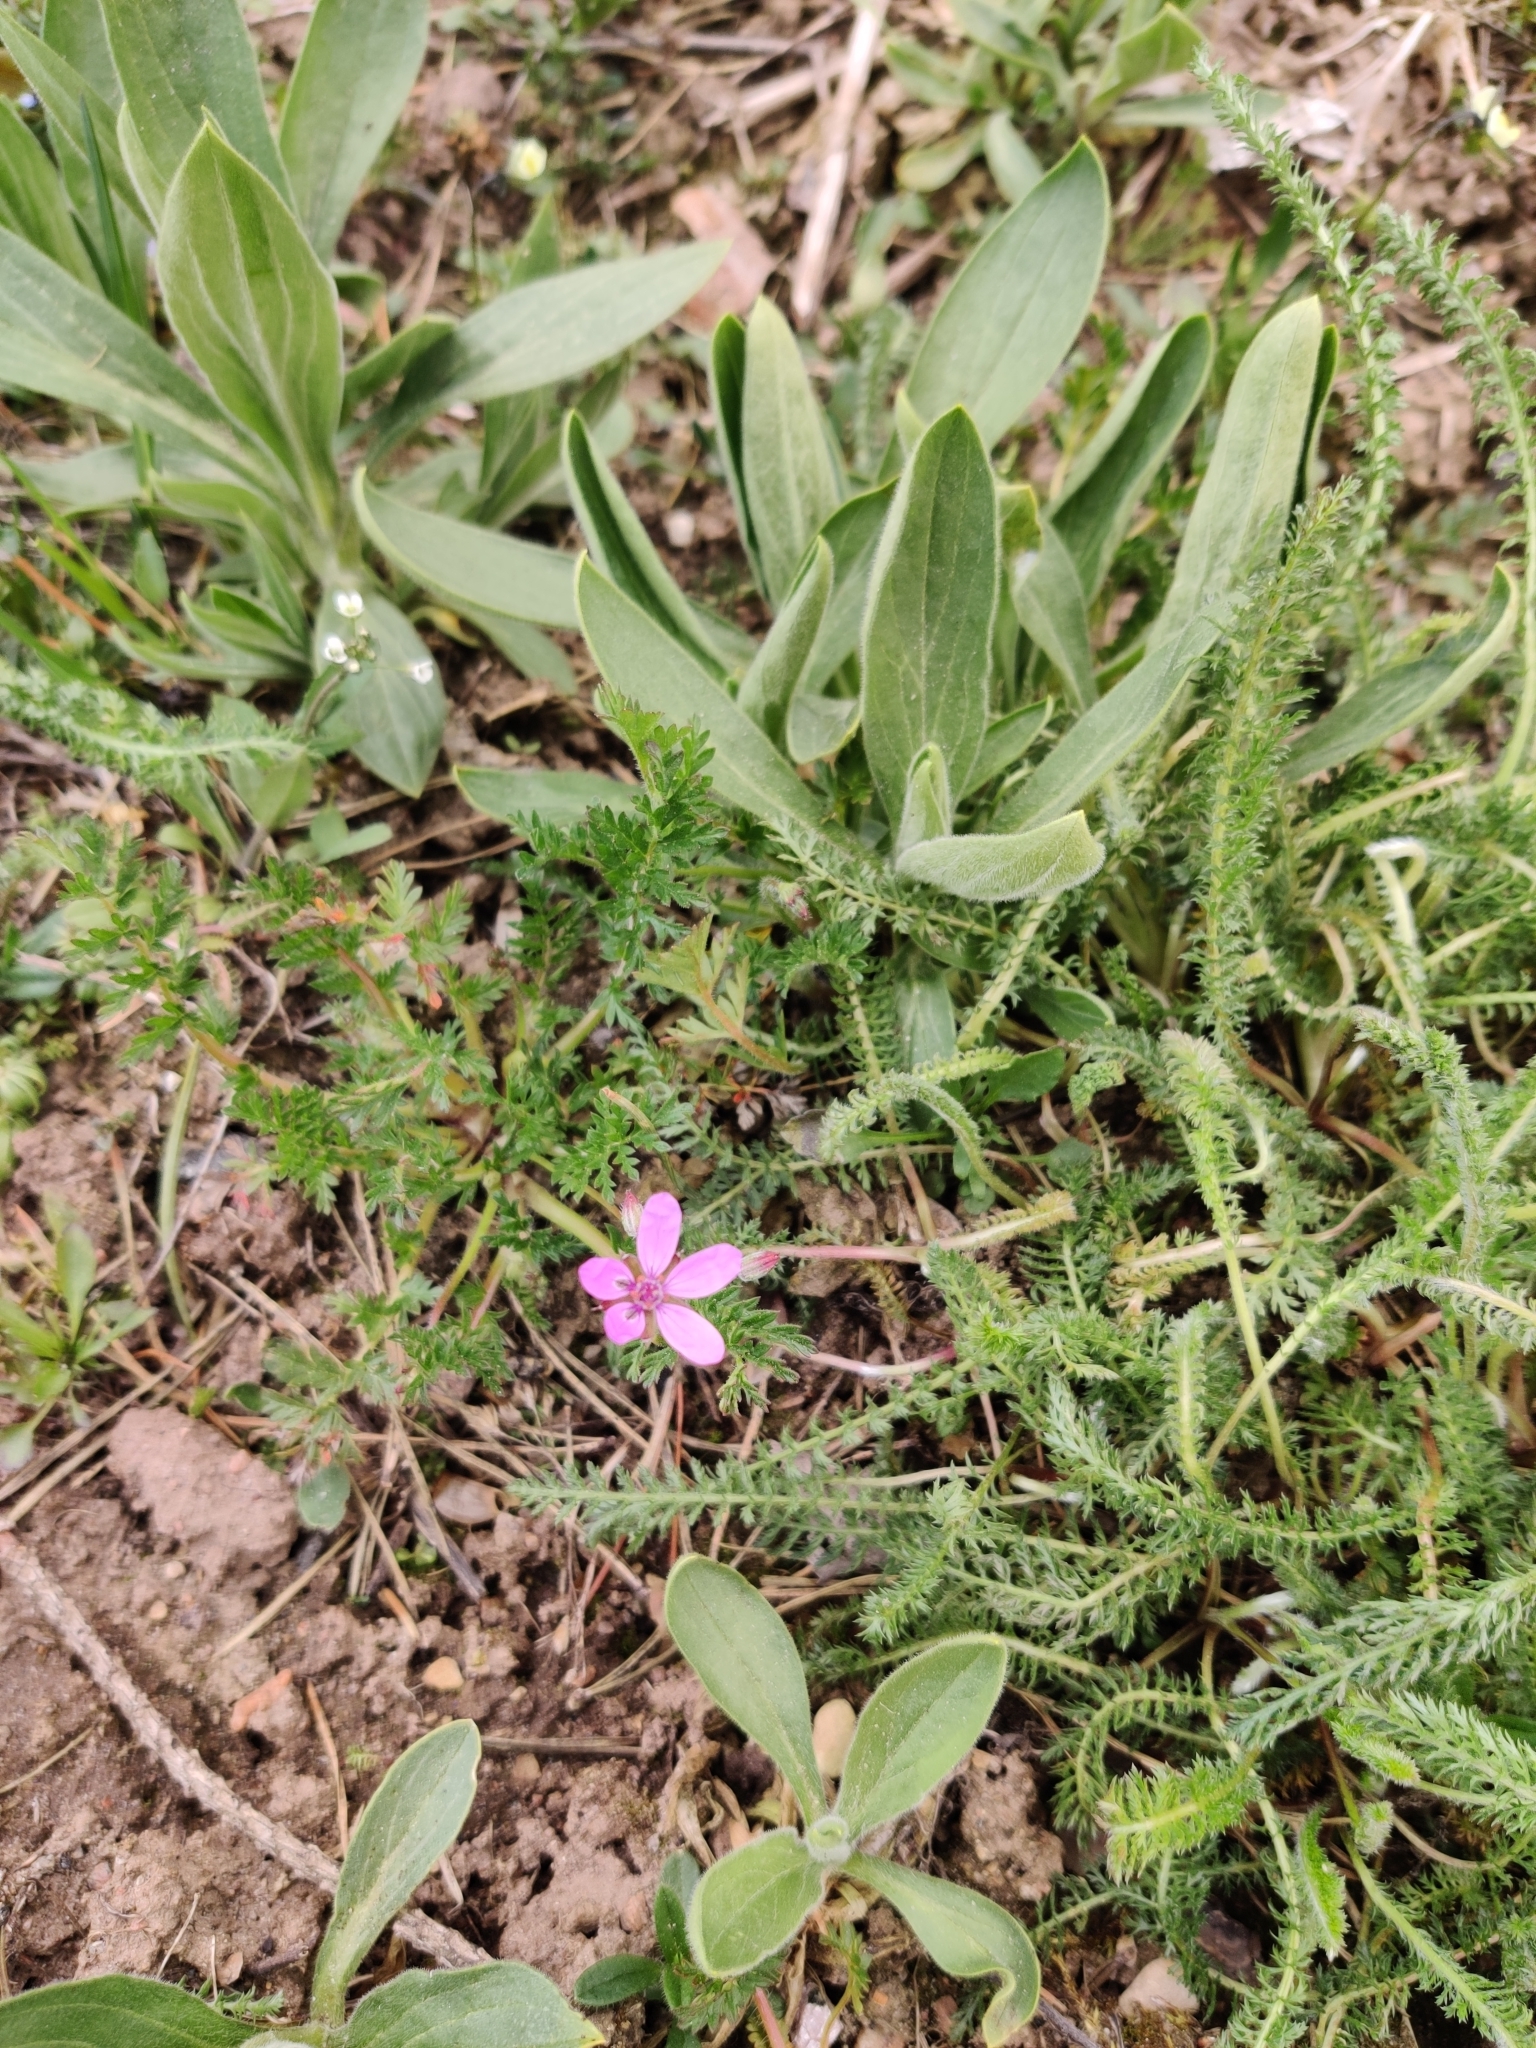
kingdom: Plantae
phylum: Tracheophyta
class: Magnoliopsida
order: Geraniales
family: Geraniaceae
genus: Erodium
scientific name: Erodium cicutarium
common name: Common stork's-bill
